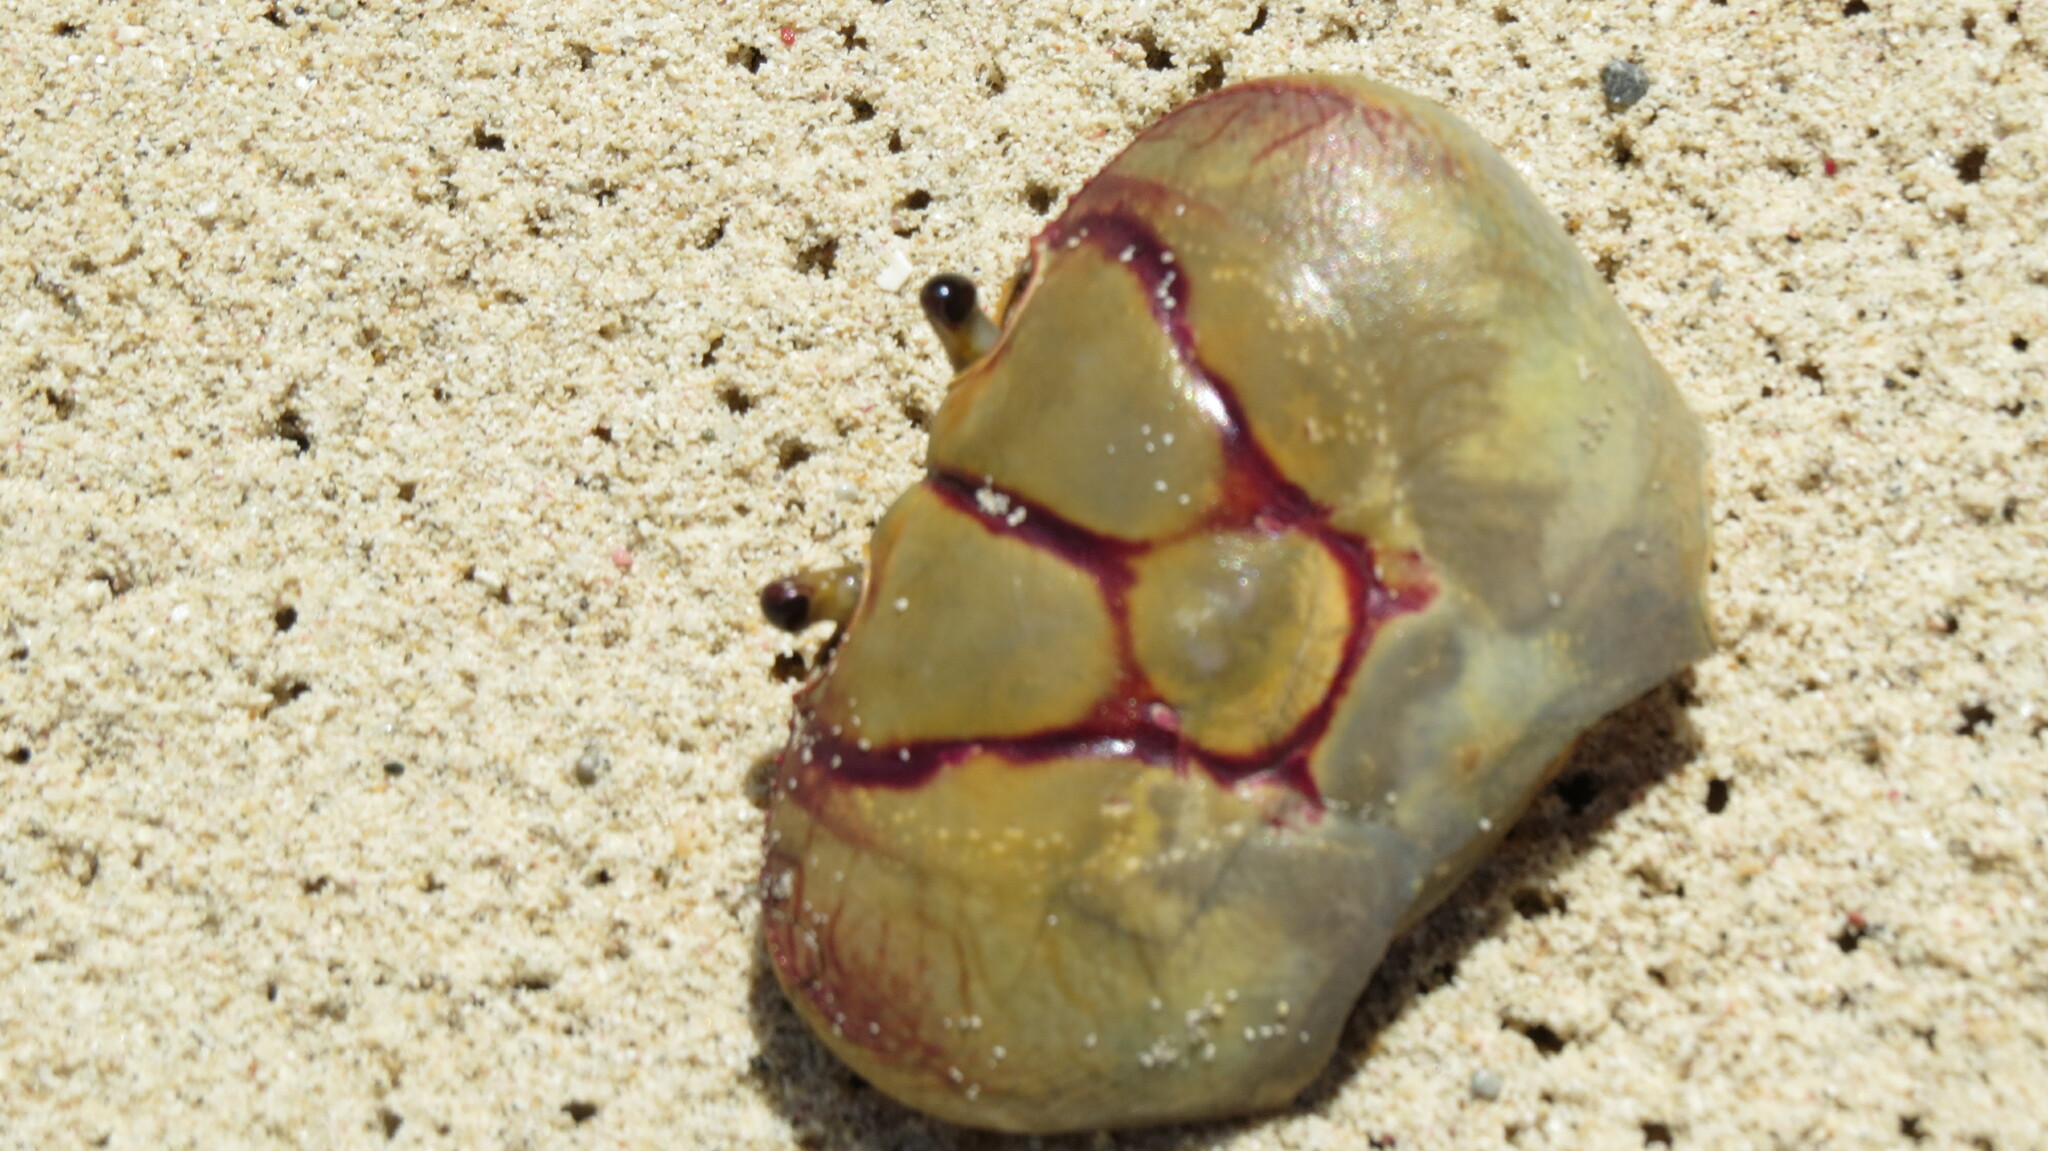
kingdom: Animalia
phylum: Arthropoda
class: Malacostraca
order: Decapoda
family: Gecarcinidae
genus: Gecarcinus
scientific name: Gecarcinus ruricola
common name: Black land crab
